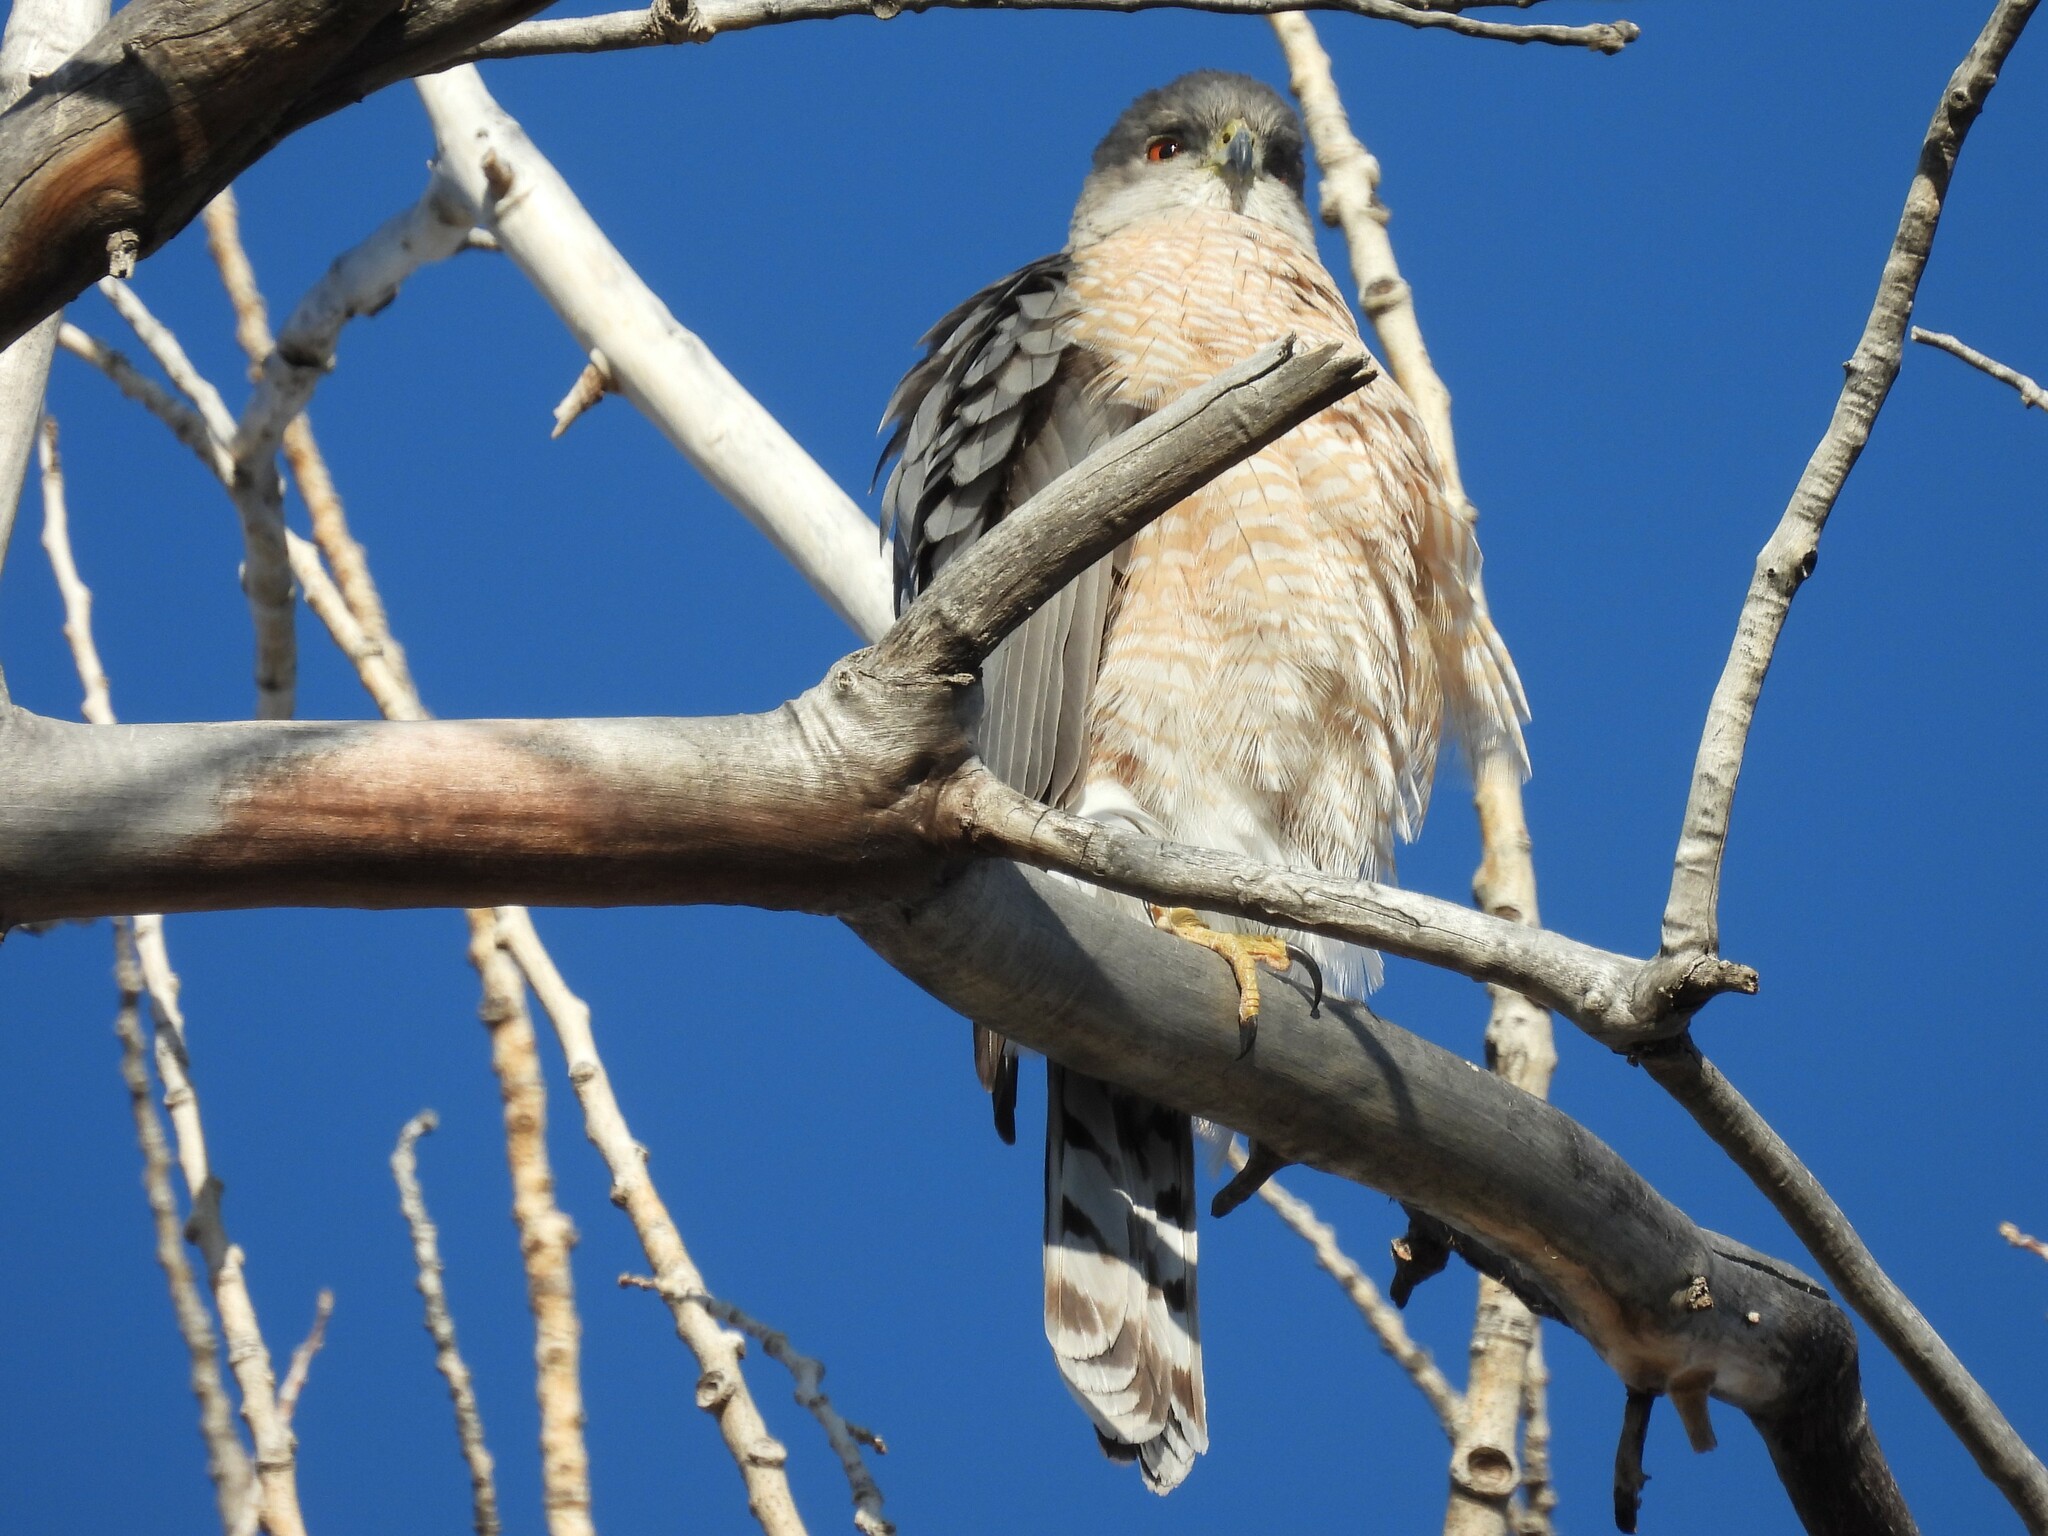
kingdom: Animalia
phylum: Chordata
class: Aves
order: Accipitriformes
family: Accipitridae
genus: Accipiter
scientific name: Accipiter cooperii
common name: Cooper's hawk
